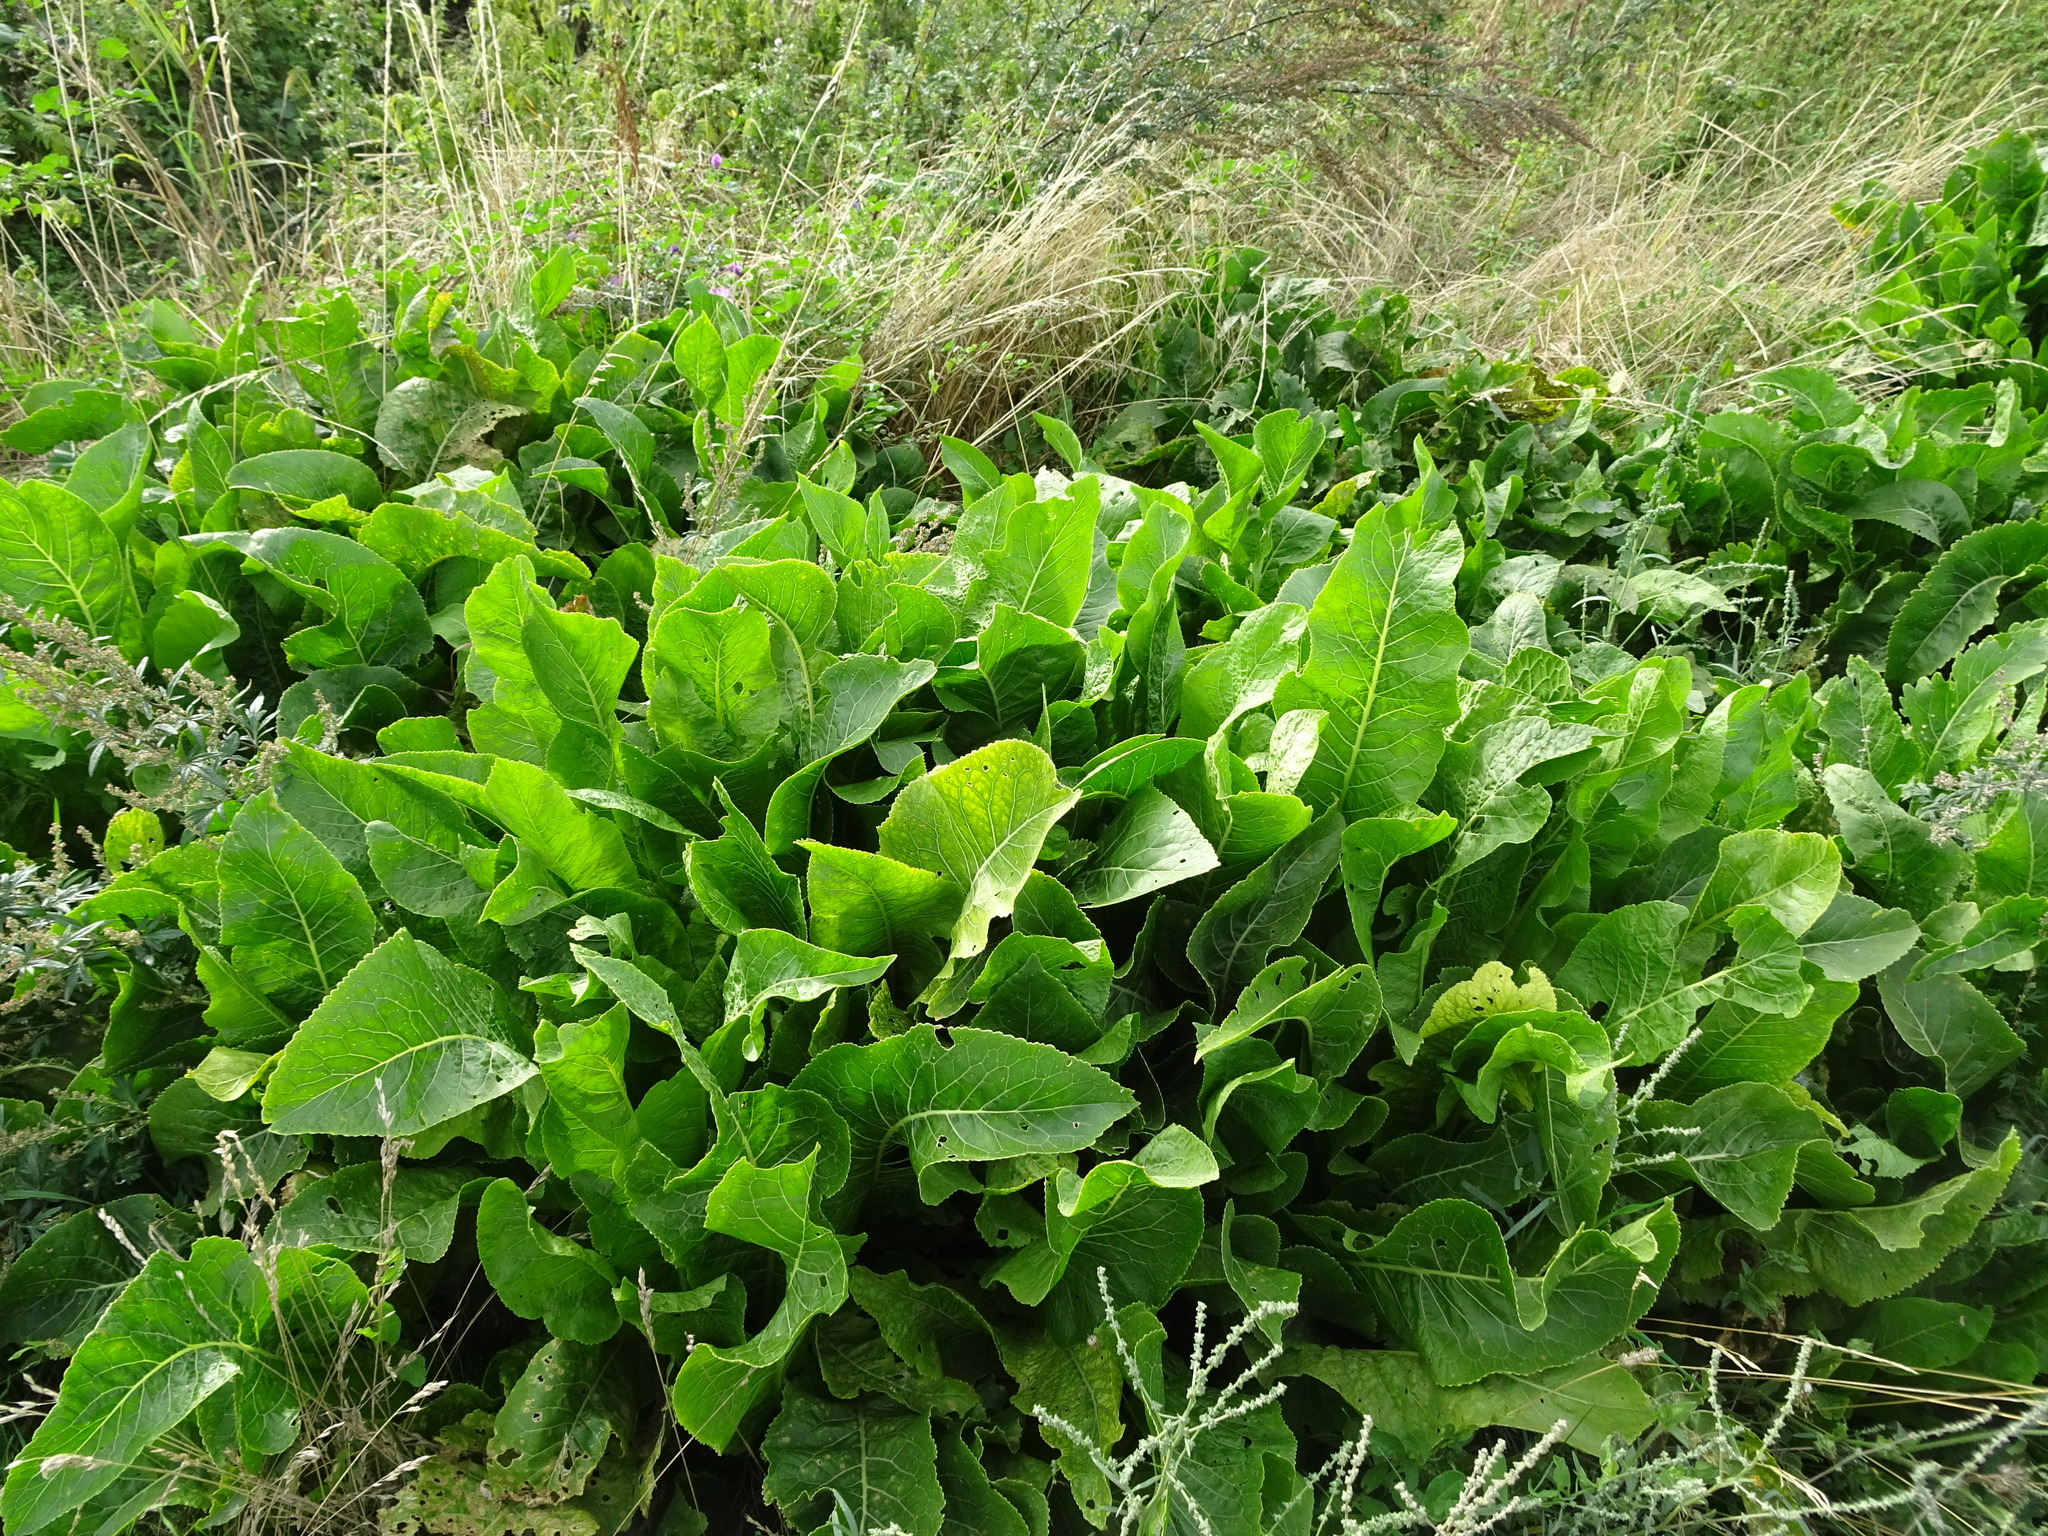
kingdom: Plantae
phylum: Tracheophyta
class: Magnoliopsida
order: Brassicales
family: Brassicaceae
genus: Armoracia
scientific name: Armoracia rusticana
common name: Horseradish
